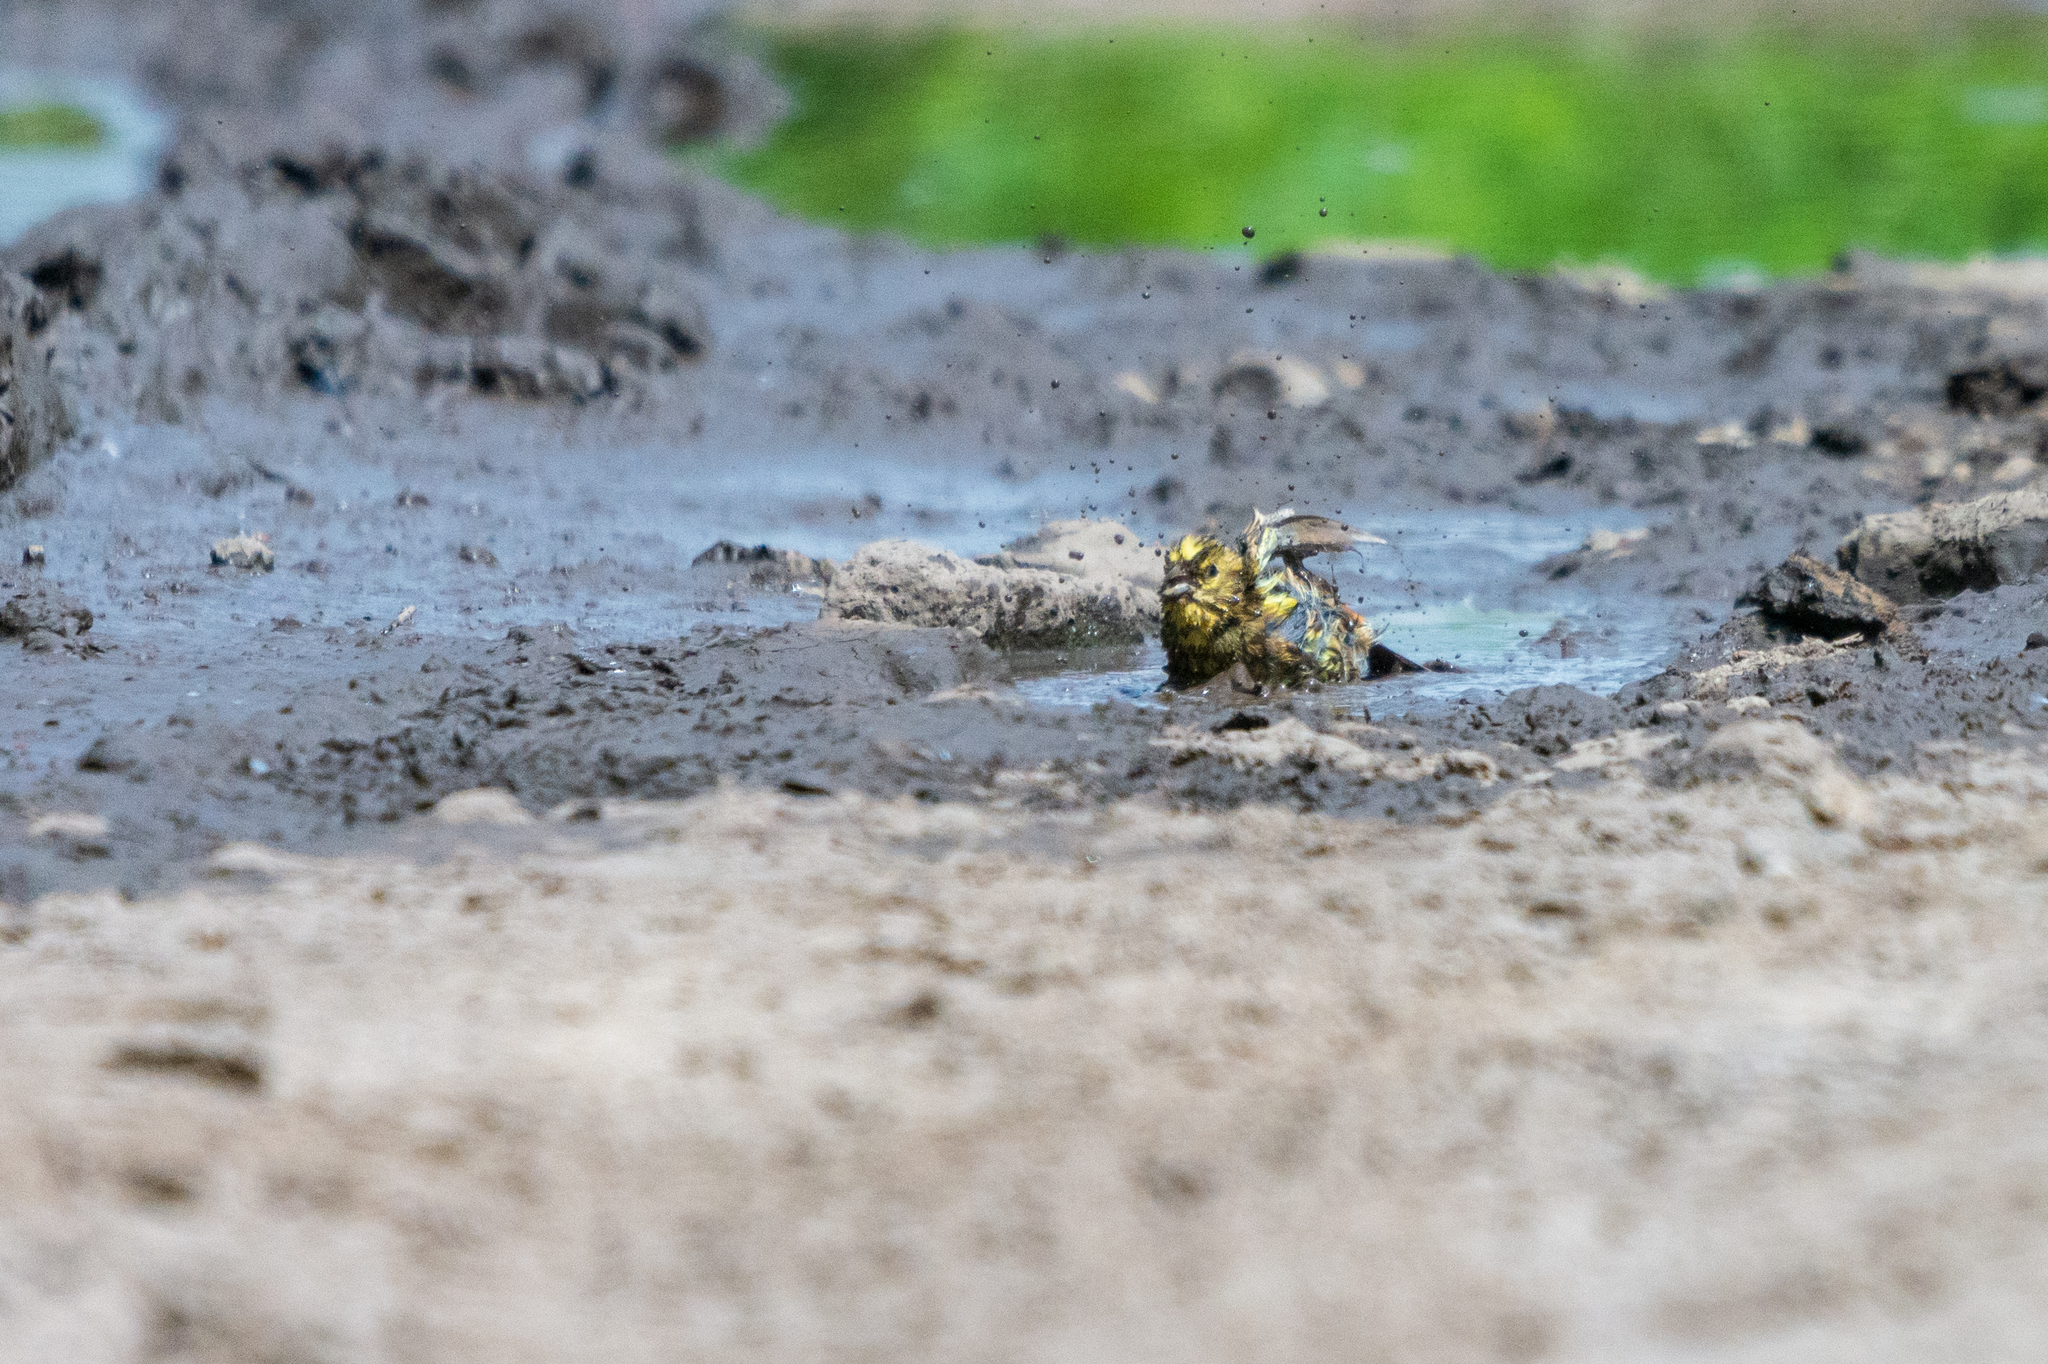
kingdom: Animalia
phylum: Chordata
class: Aves
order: Passeriformes
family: Emberizidae
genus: Emberiza
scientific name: Emberiza citrinella
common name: Yellowhammer
